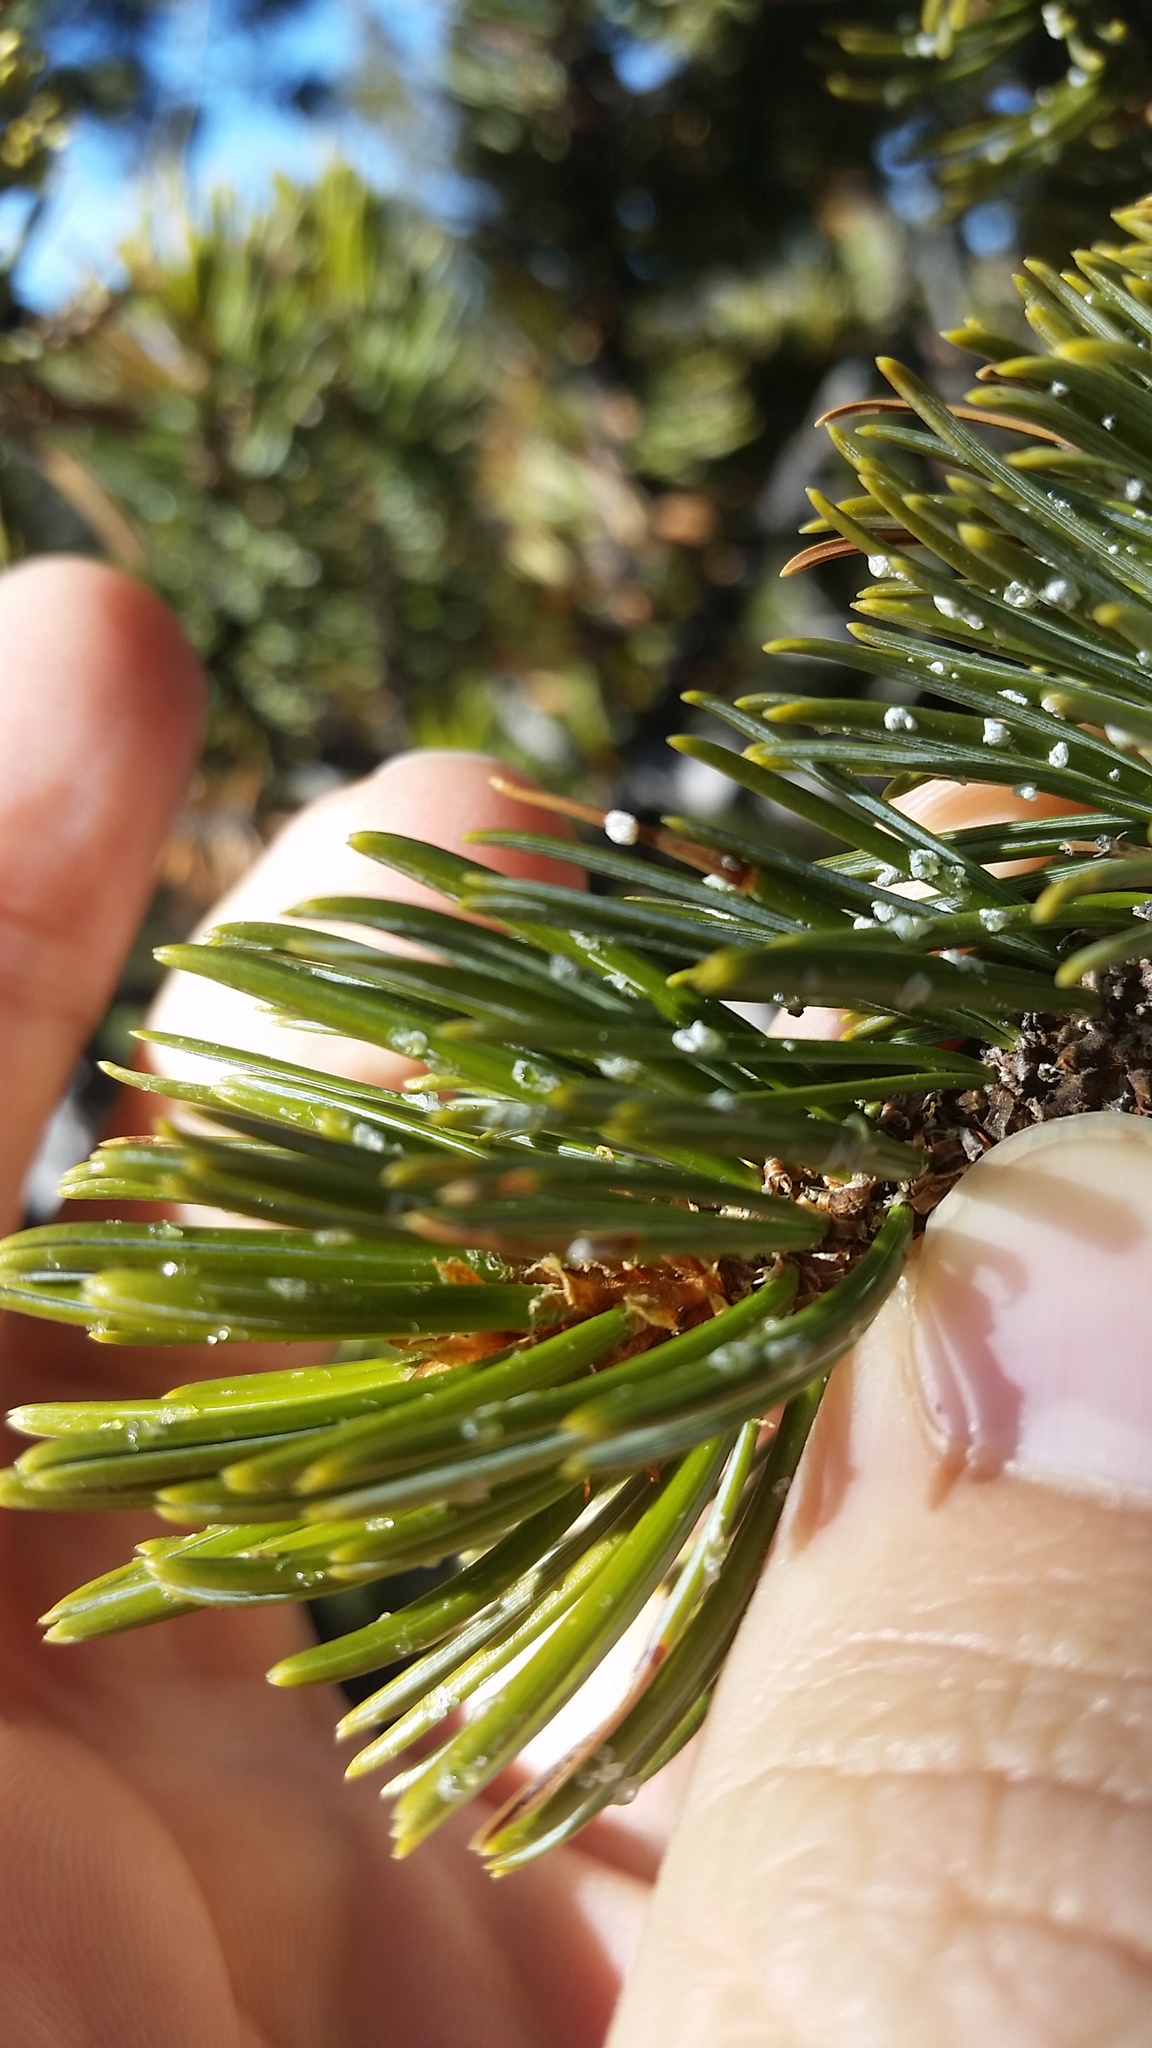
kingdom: Plantae
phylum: Tracheophyta
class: Pinopsida
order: Pinales
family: Pinaceae
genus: Pinus
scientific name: Pinus aristata
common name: Colorado bristlecone pine
